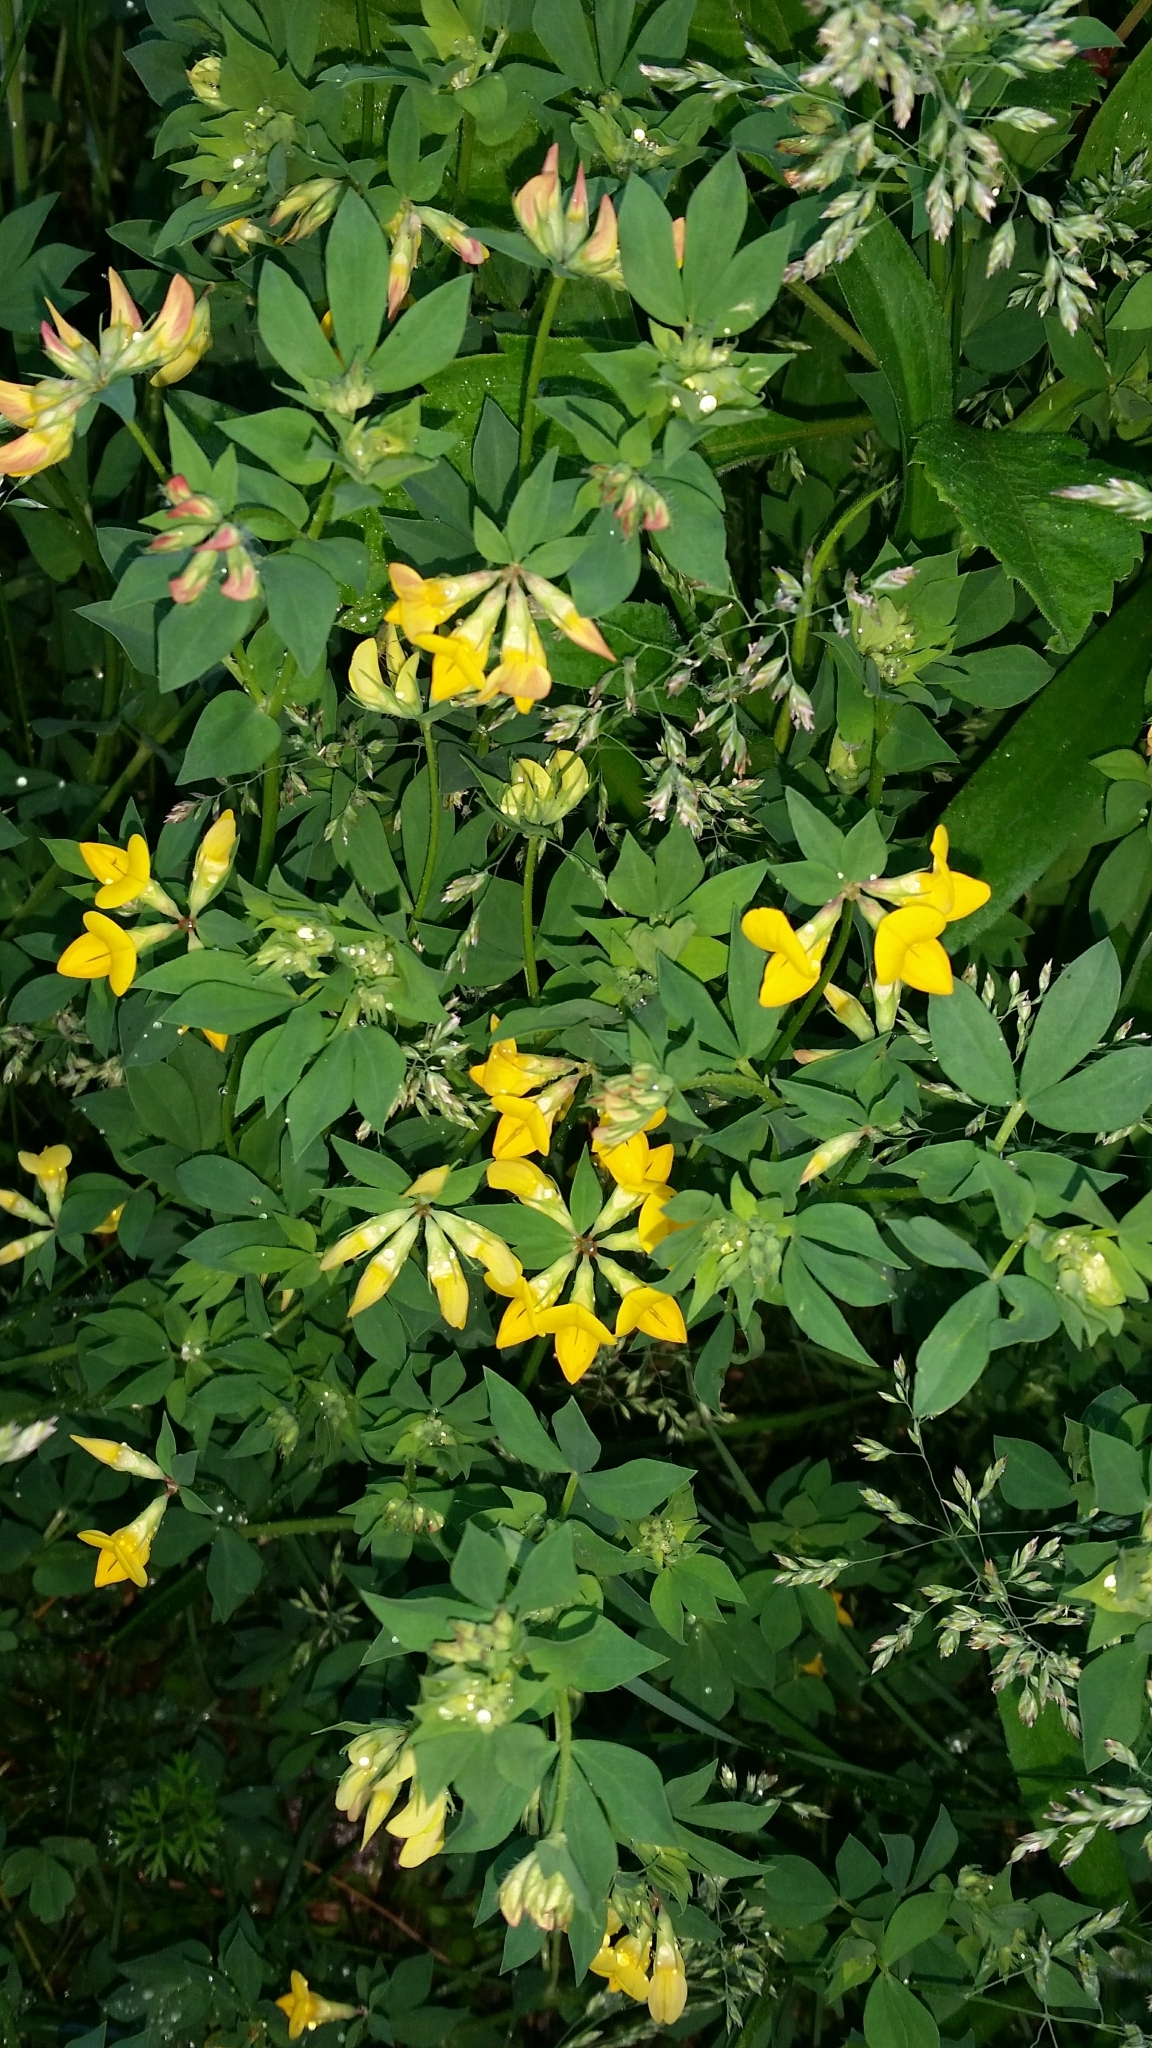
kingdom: Plantae
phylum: Tracheophyta
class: Magnoliopsida
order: Fabales
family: Fabaceae
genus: Lotus
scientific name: Lotus corniculatus
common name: Common bird's-foot-trefoil
